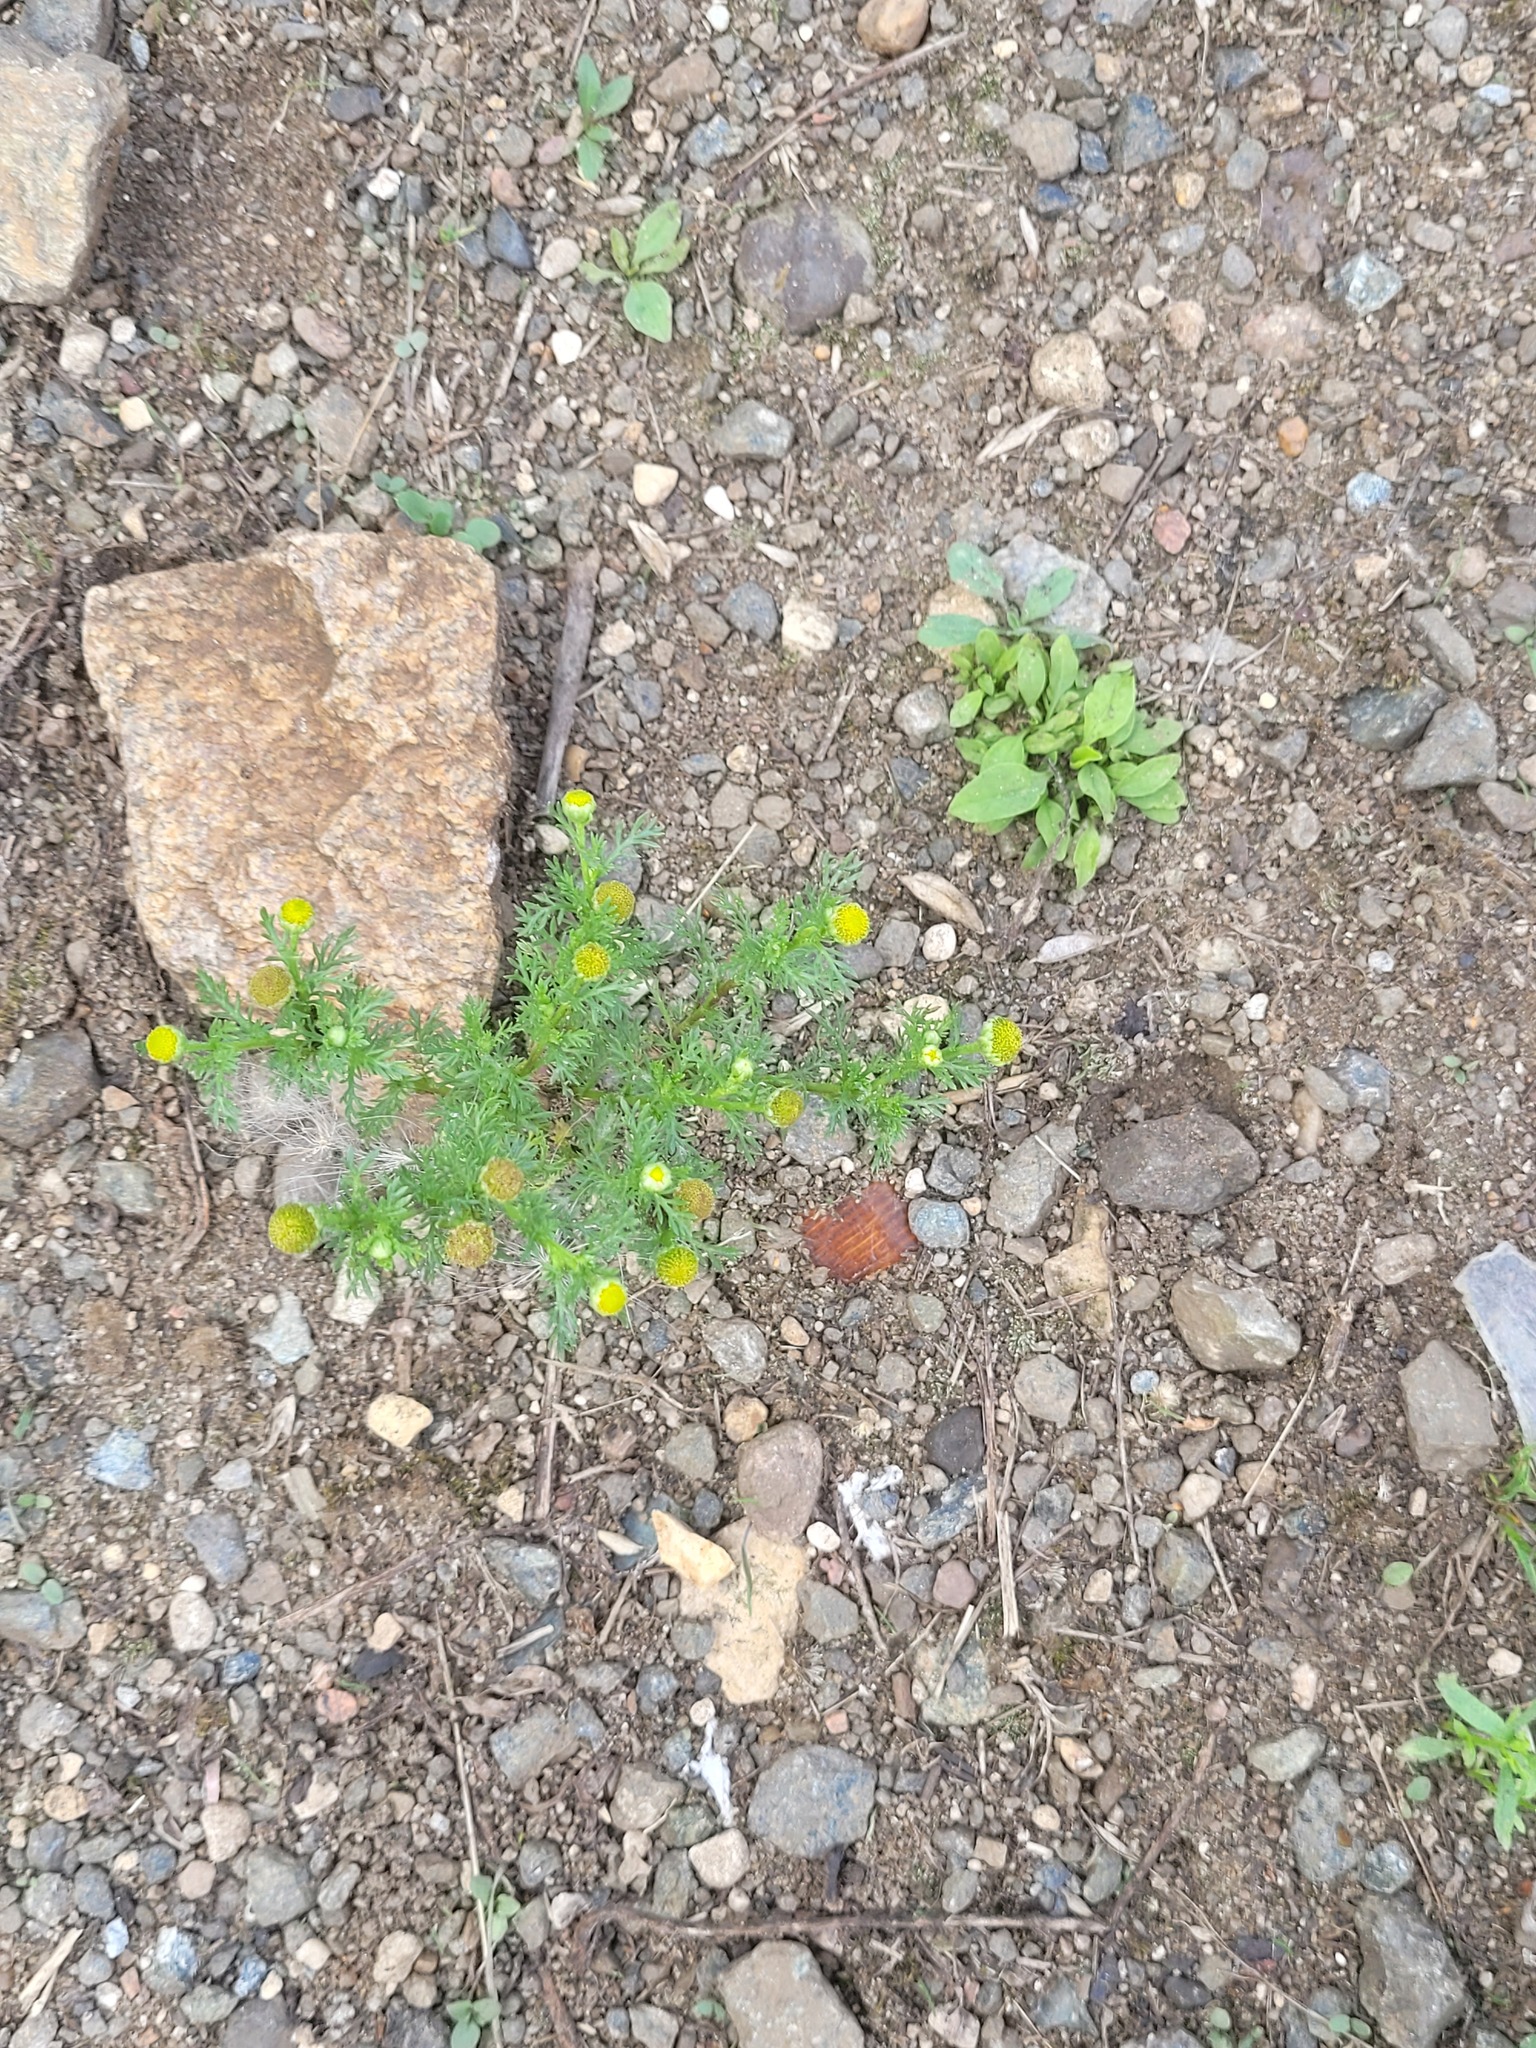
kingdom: Plantae
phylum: Tracheophyta
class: Magnoliopsida
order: Asterales
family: Asteraceae
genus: Matricaria
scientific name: Matricaria discoidea
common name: Disc mayweed
